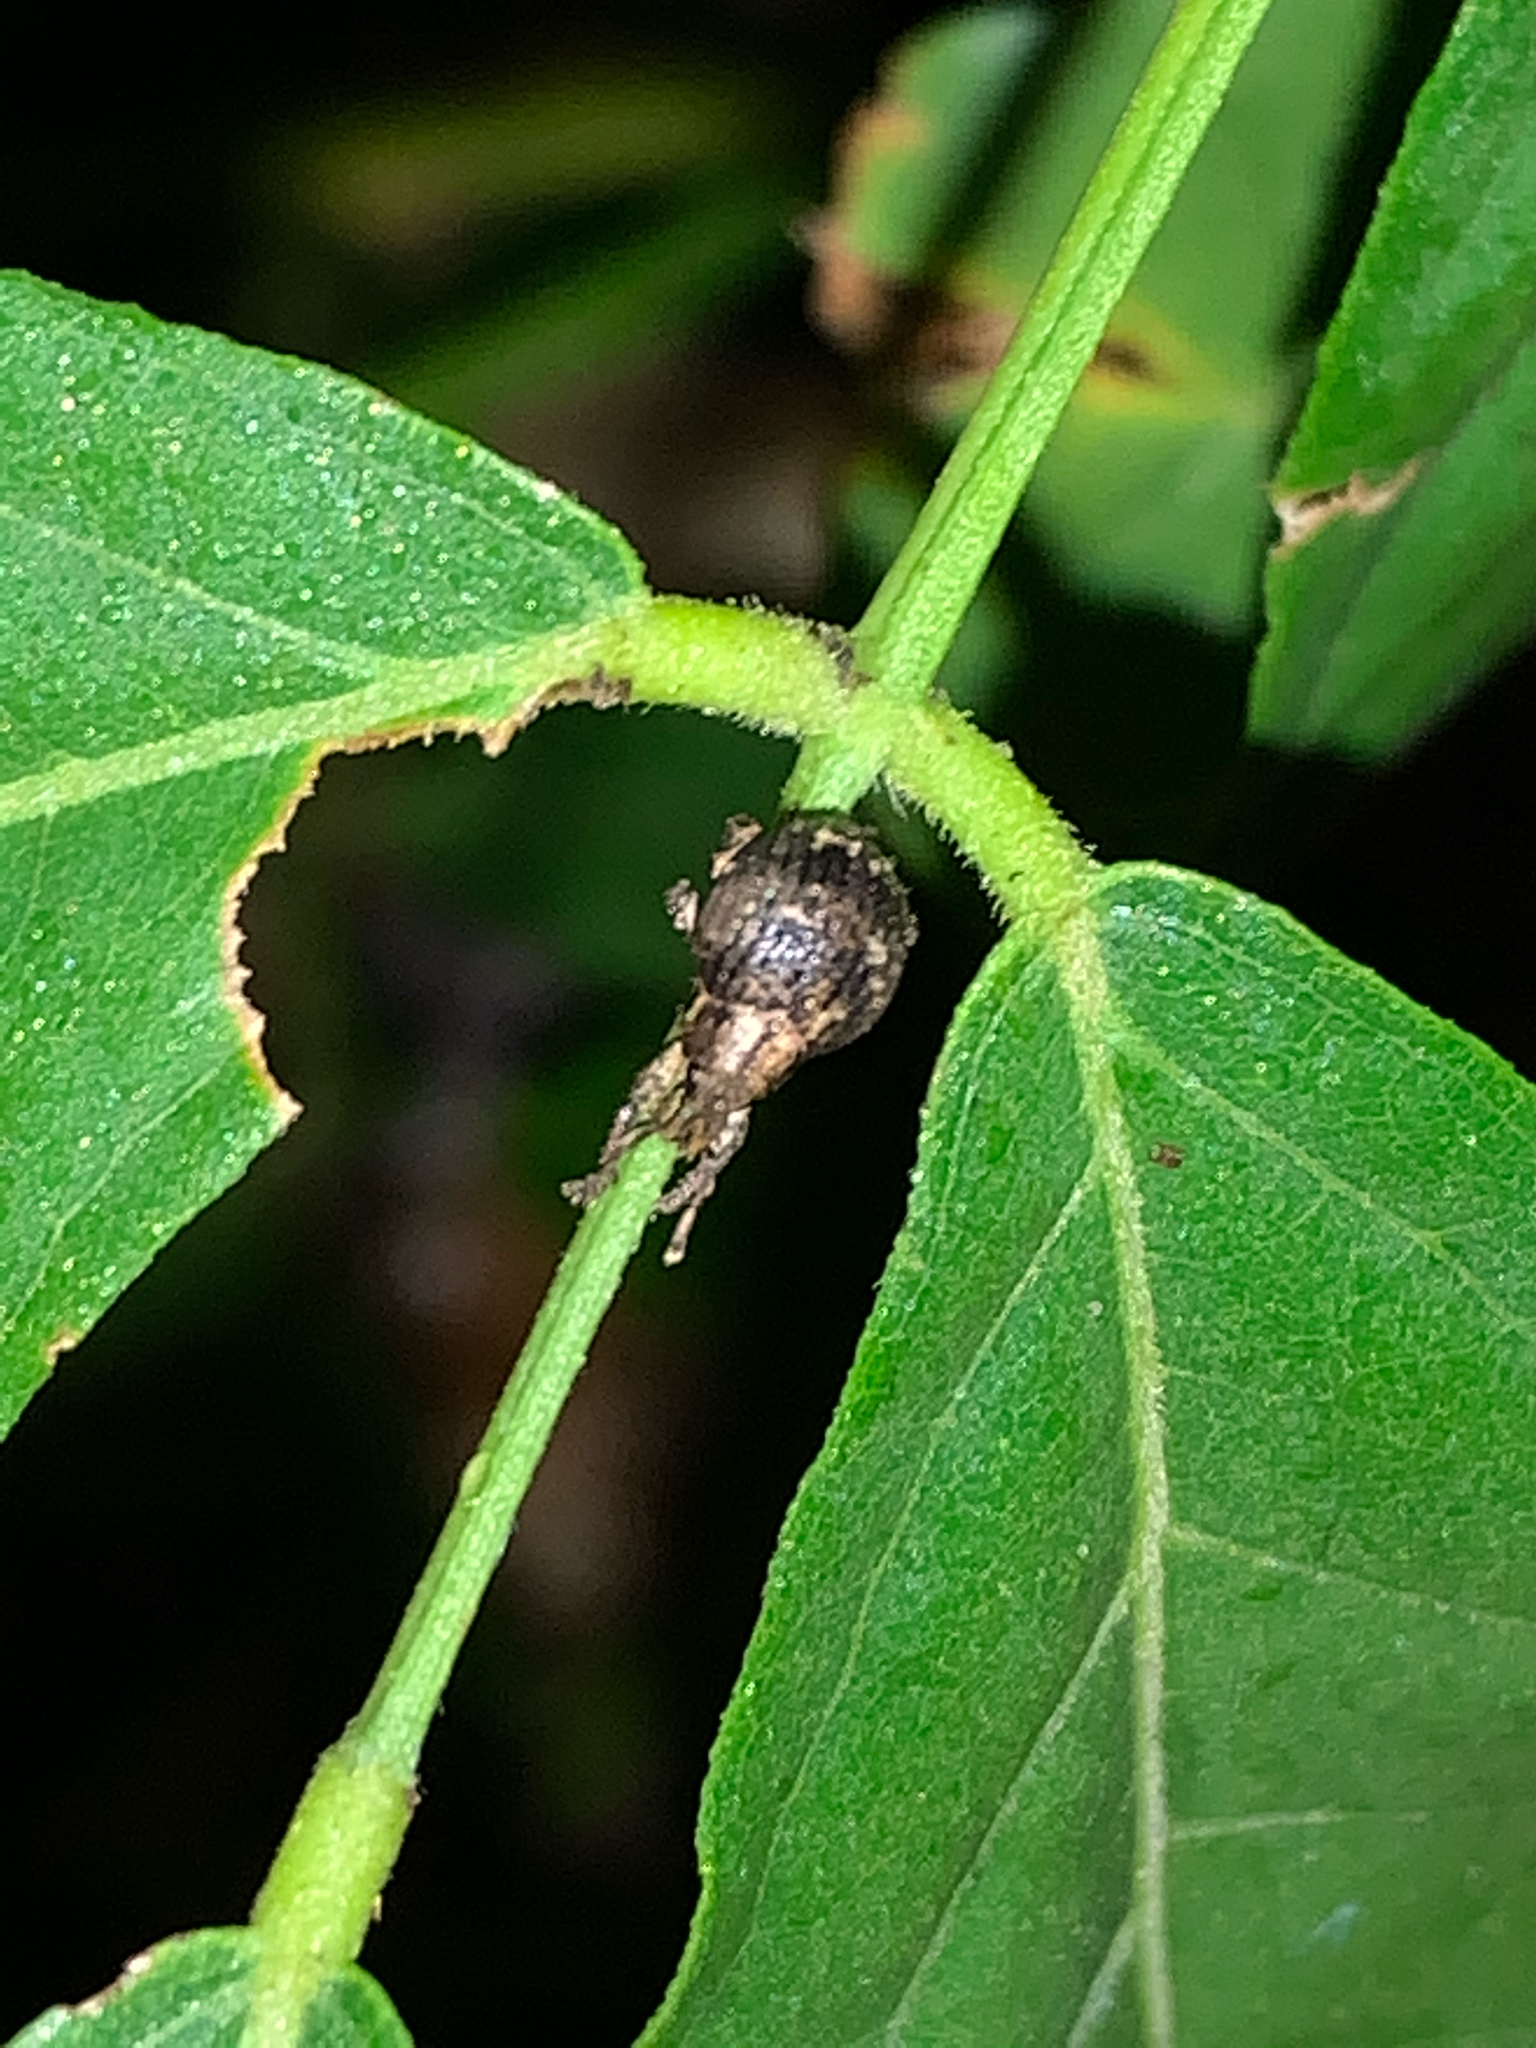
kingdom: Animalia
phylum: Arthropoda
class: Insecta
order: Coleoptera
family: Curculionidae
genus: Pseudocneorhinus
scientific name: Pseudocneorhinus bifasciatus
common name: Two-banded japanese weevil
